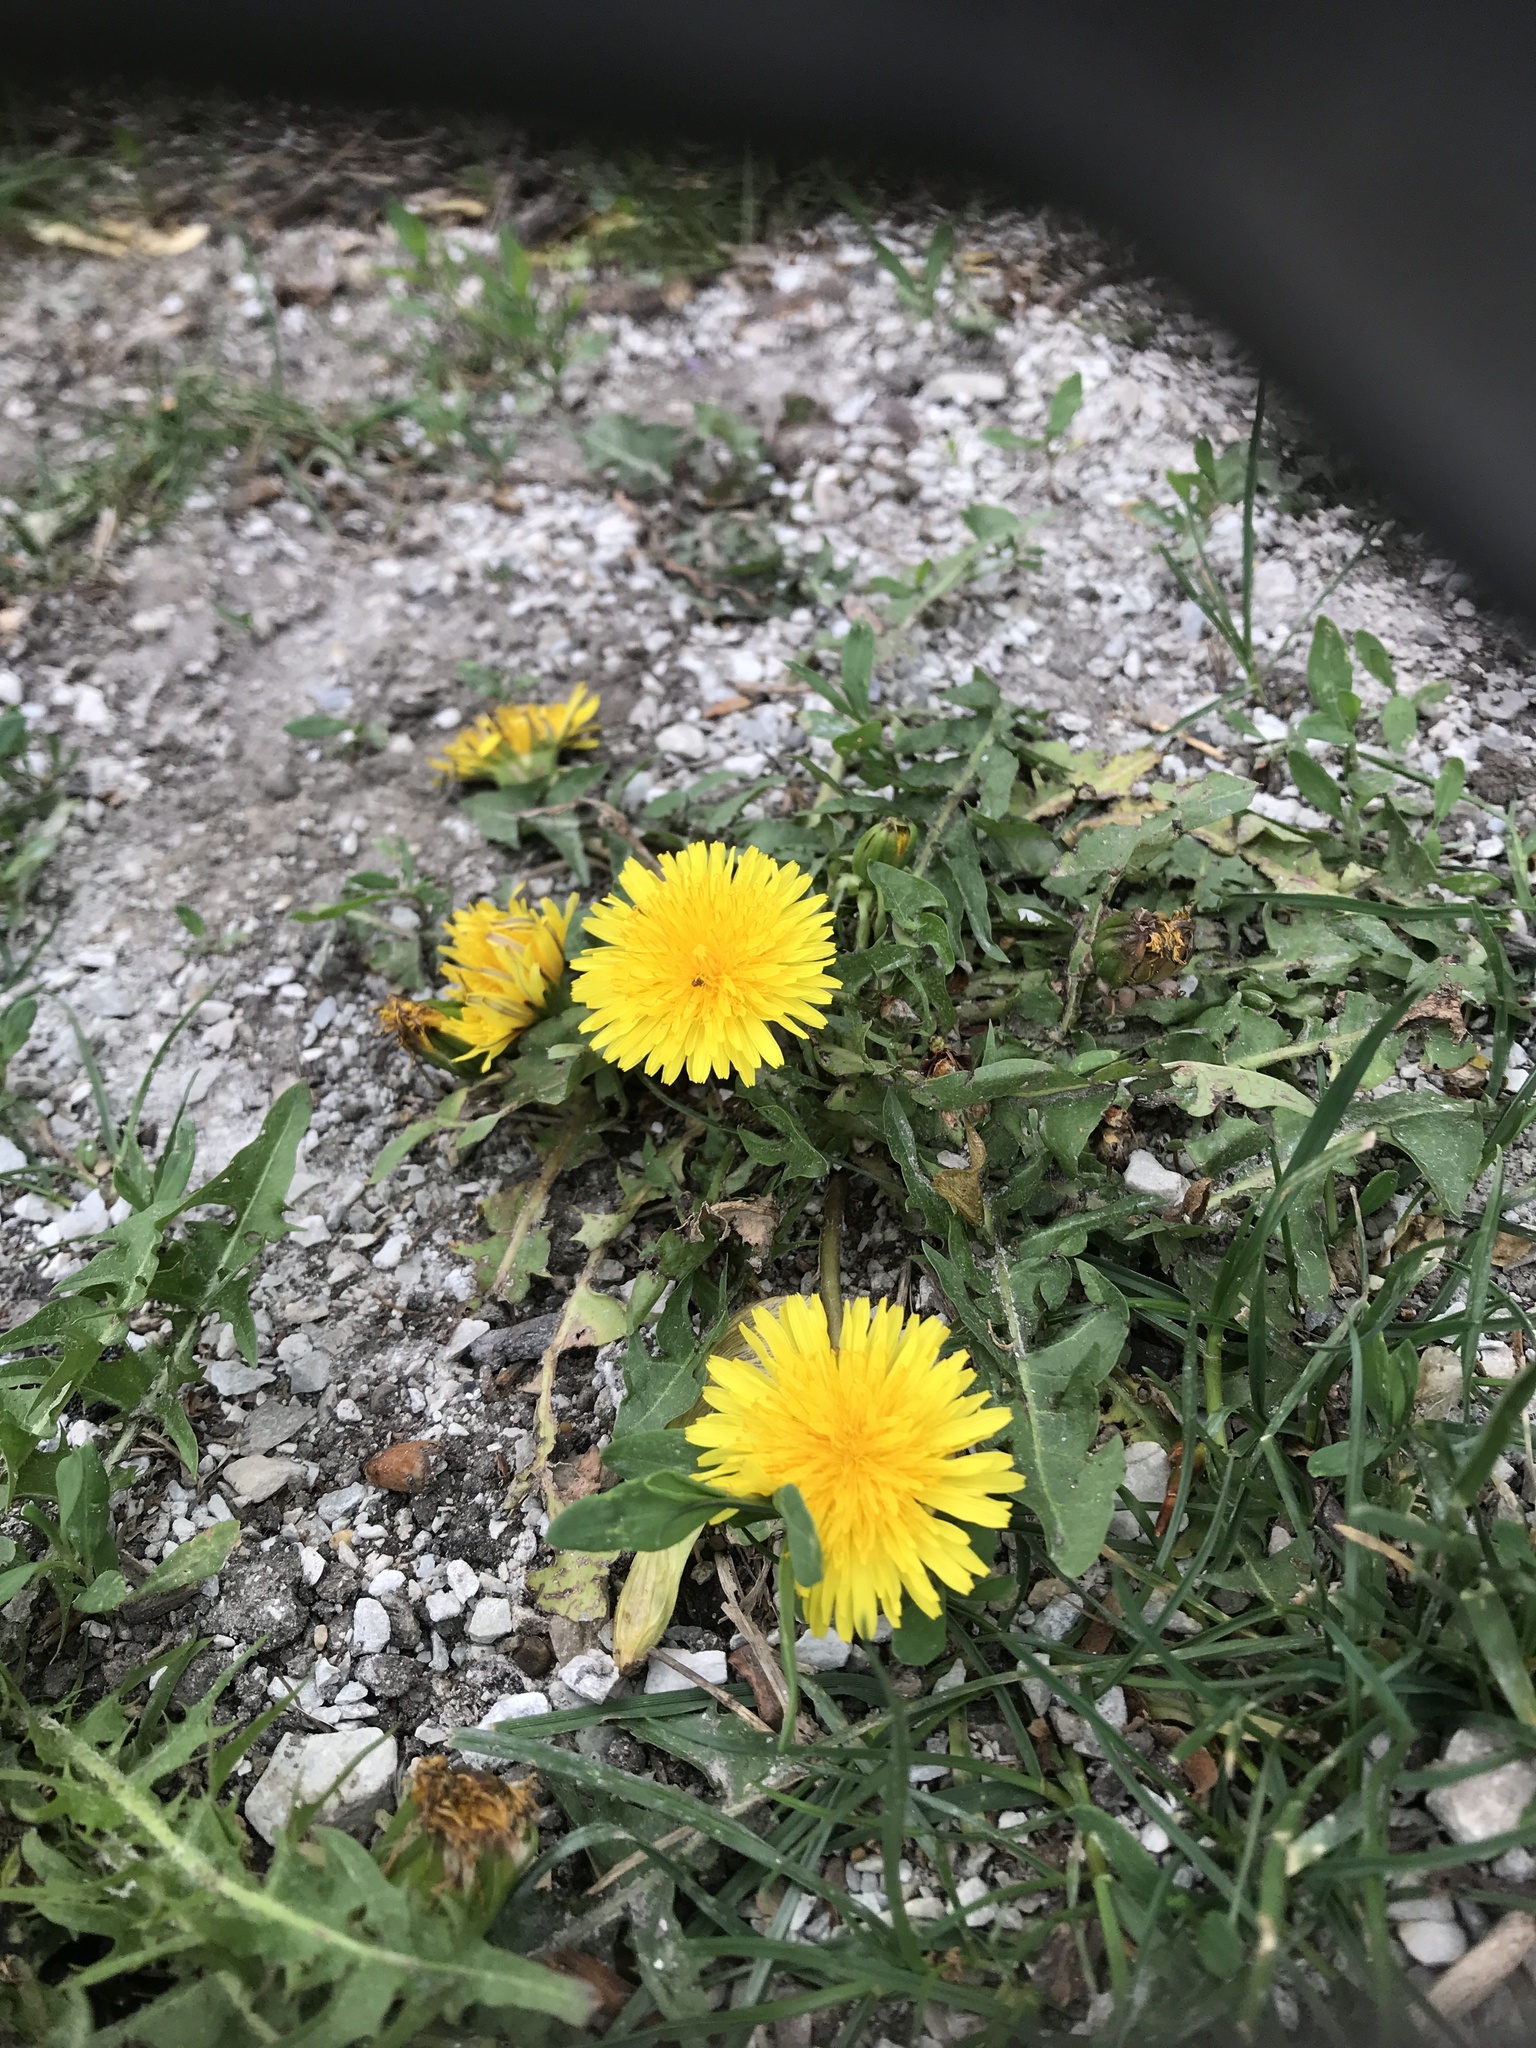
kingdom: Plantae
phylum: Tracheophyta
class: Magnoliopsida
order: Asterales
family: Asteraceae
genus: Taraxacum
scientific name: Taraxacum officinale
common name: Common dandelion
